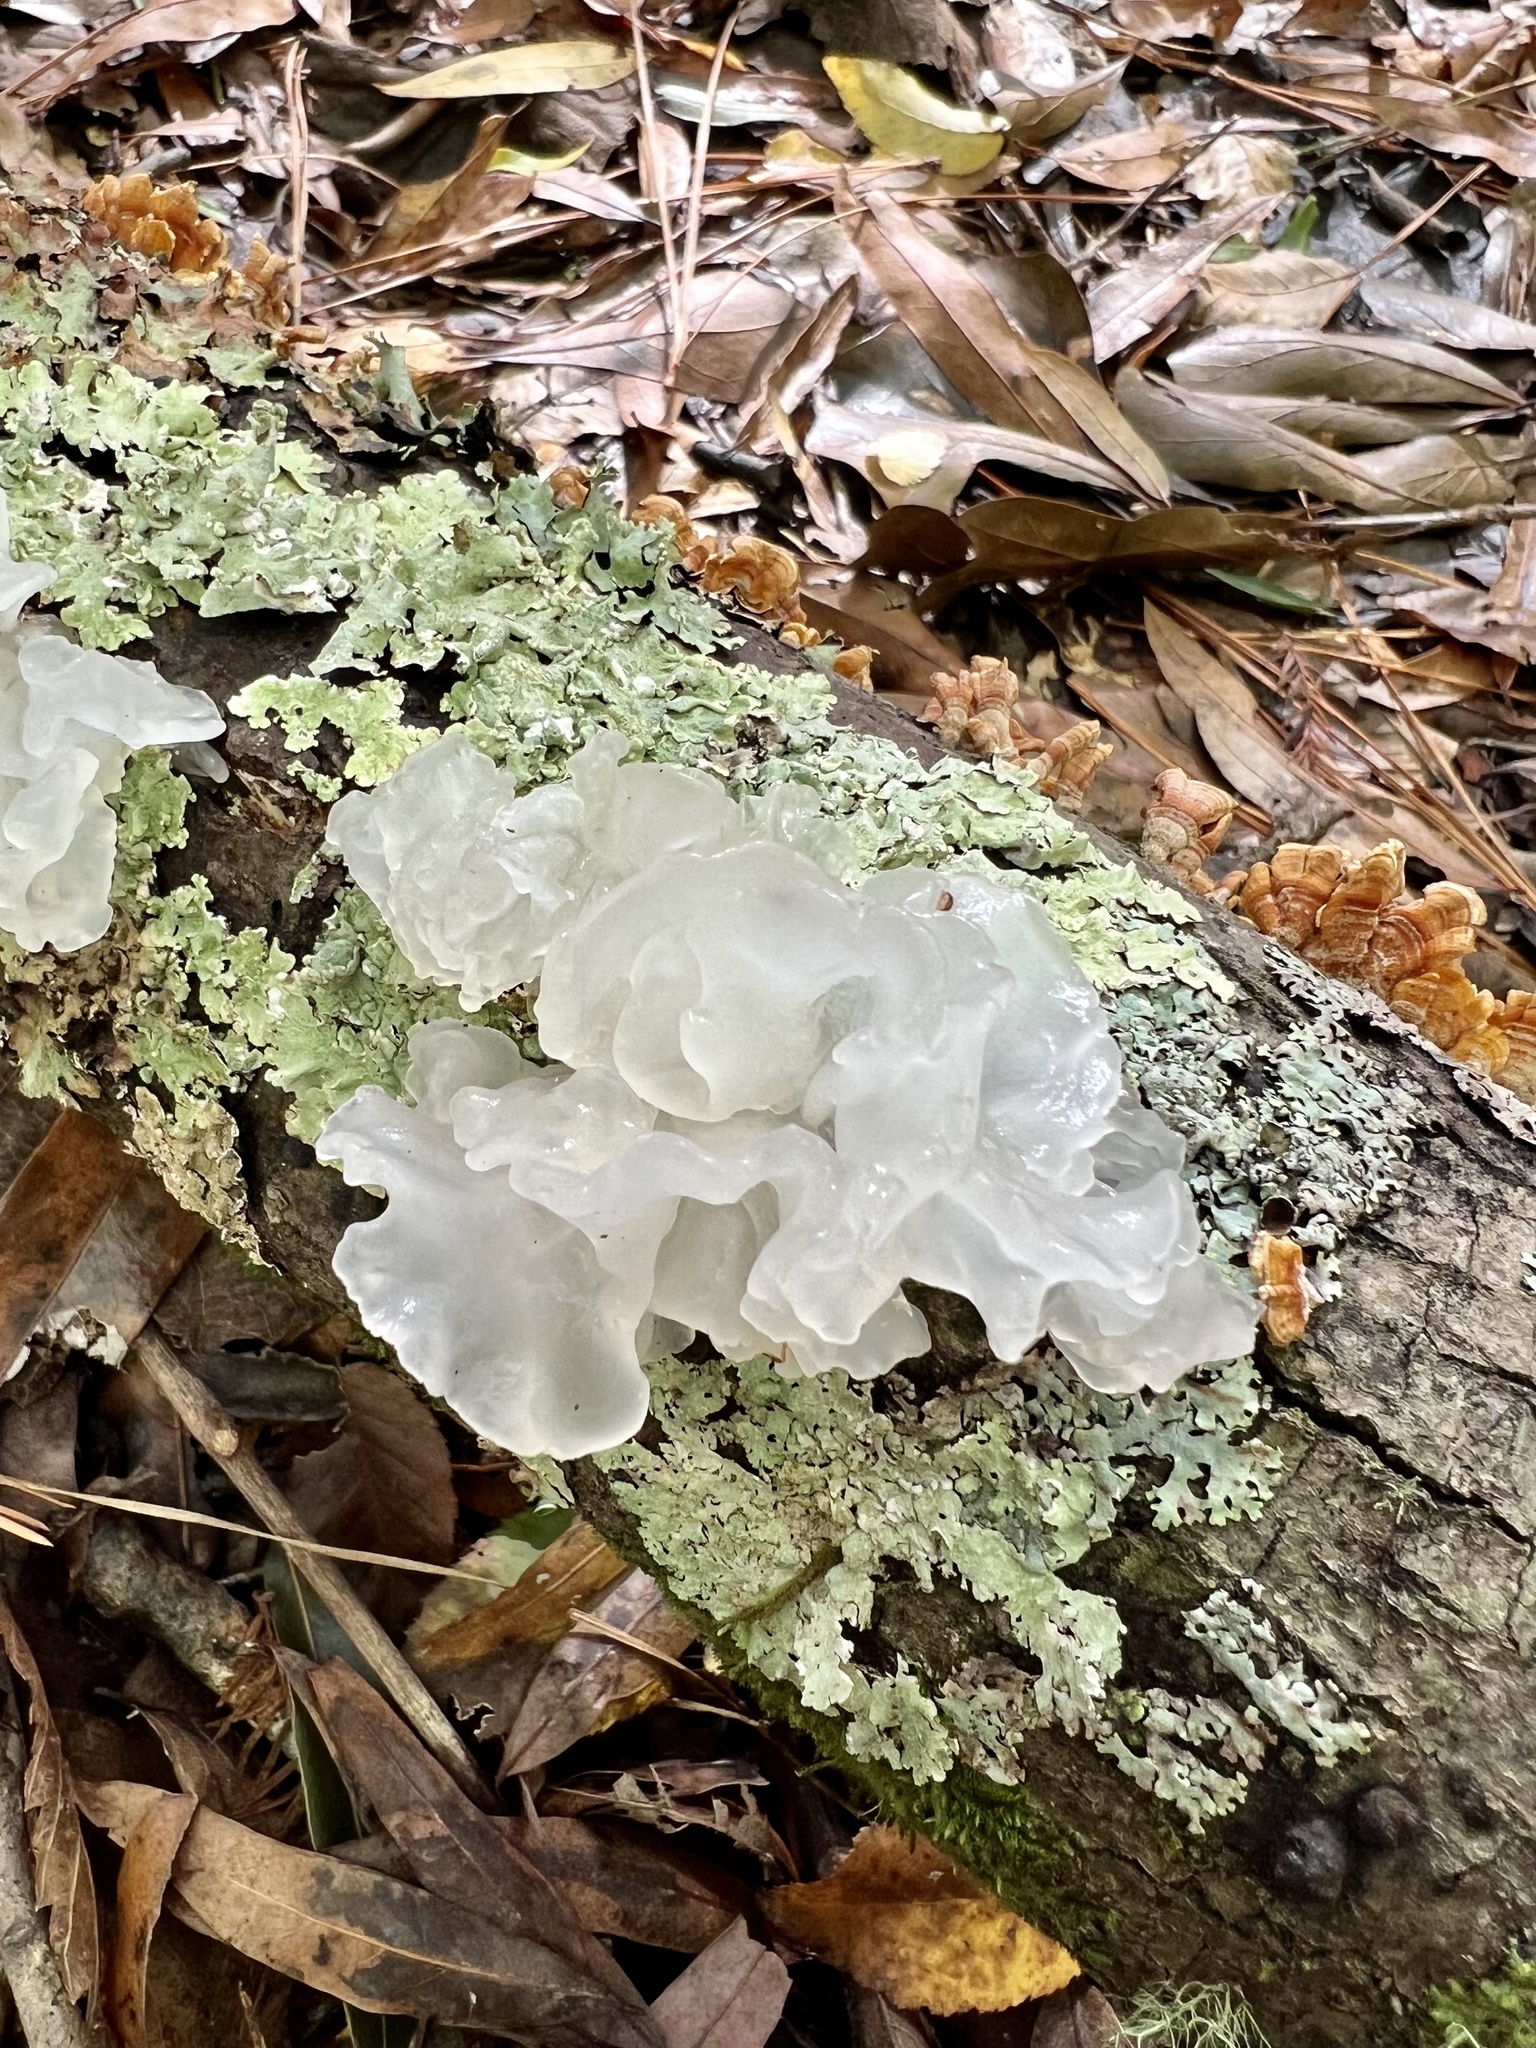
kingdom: Fungi
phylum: Basidiomycota
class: Tremellomycetes
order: Tremellales
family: Tremellaceae
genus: Tremella
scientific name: Tremella fuciformis
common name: Snow fungus
